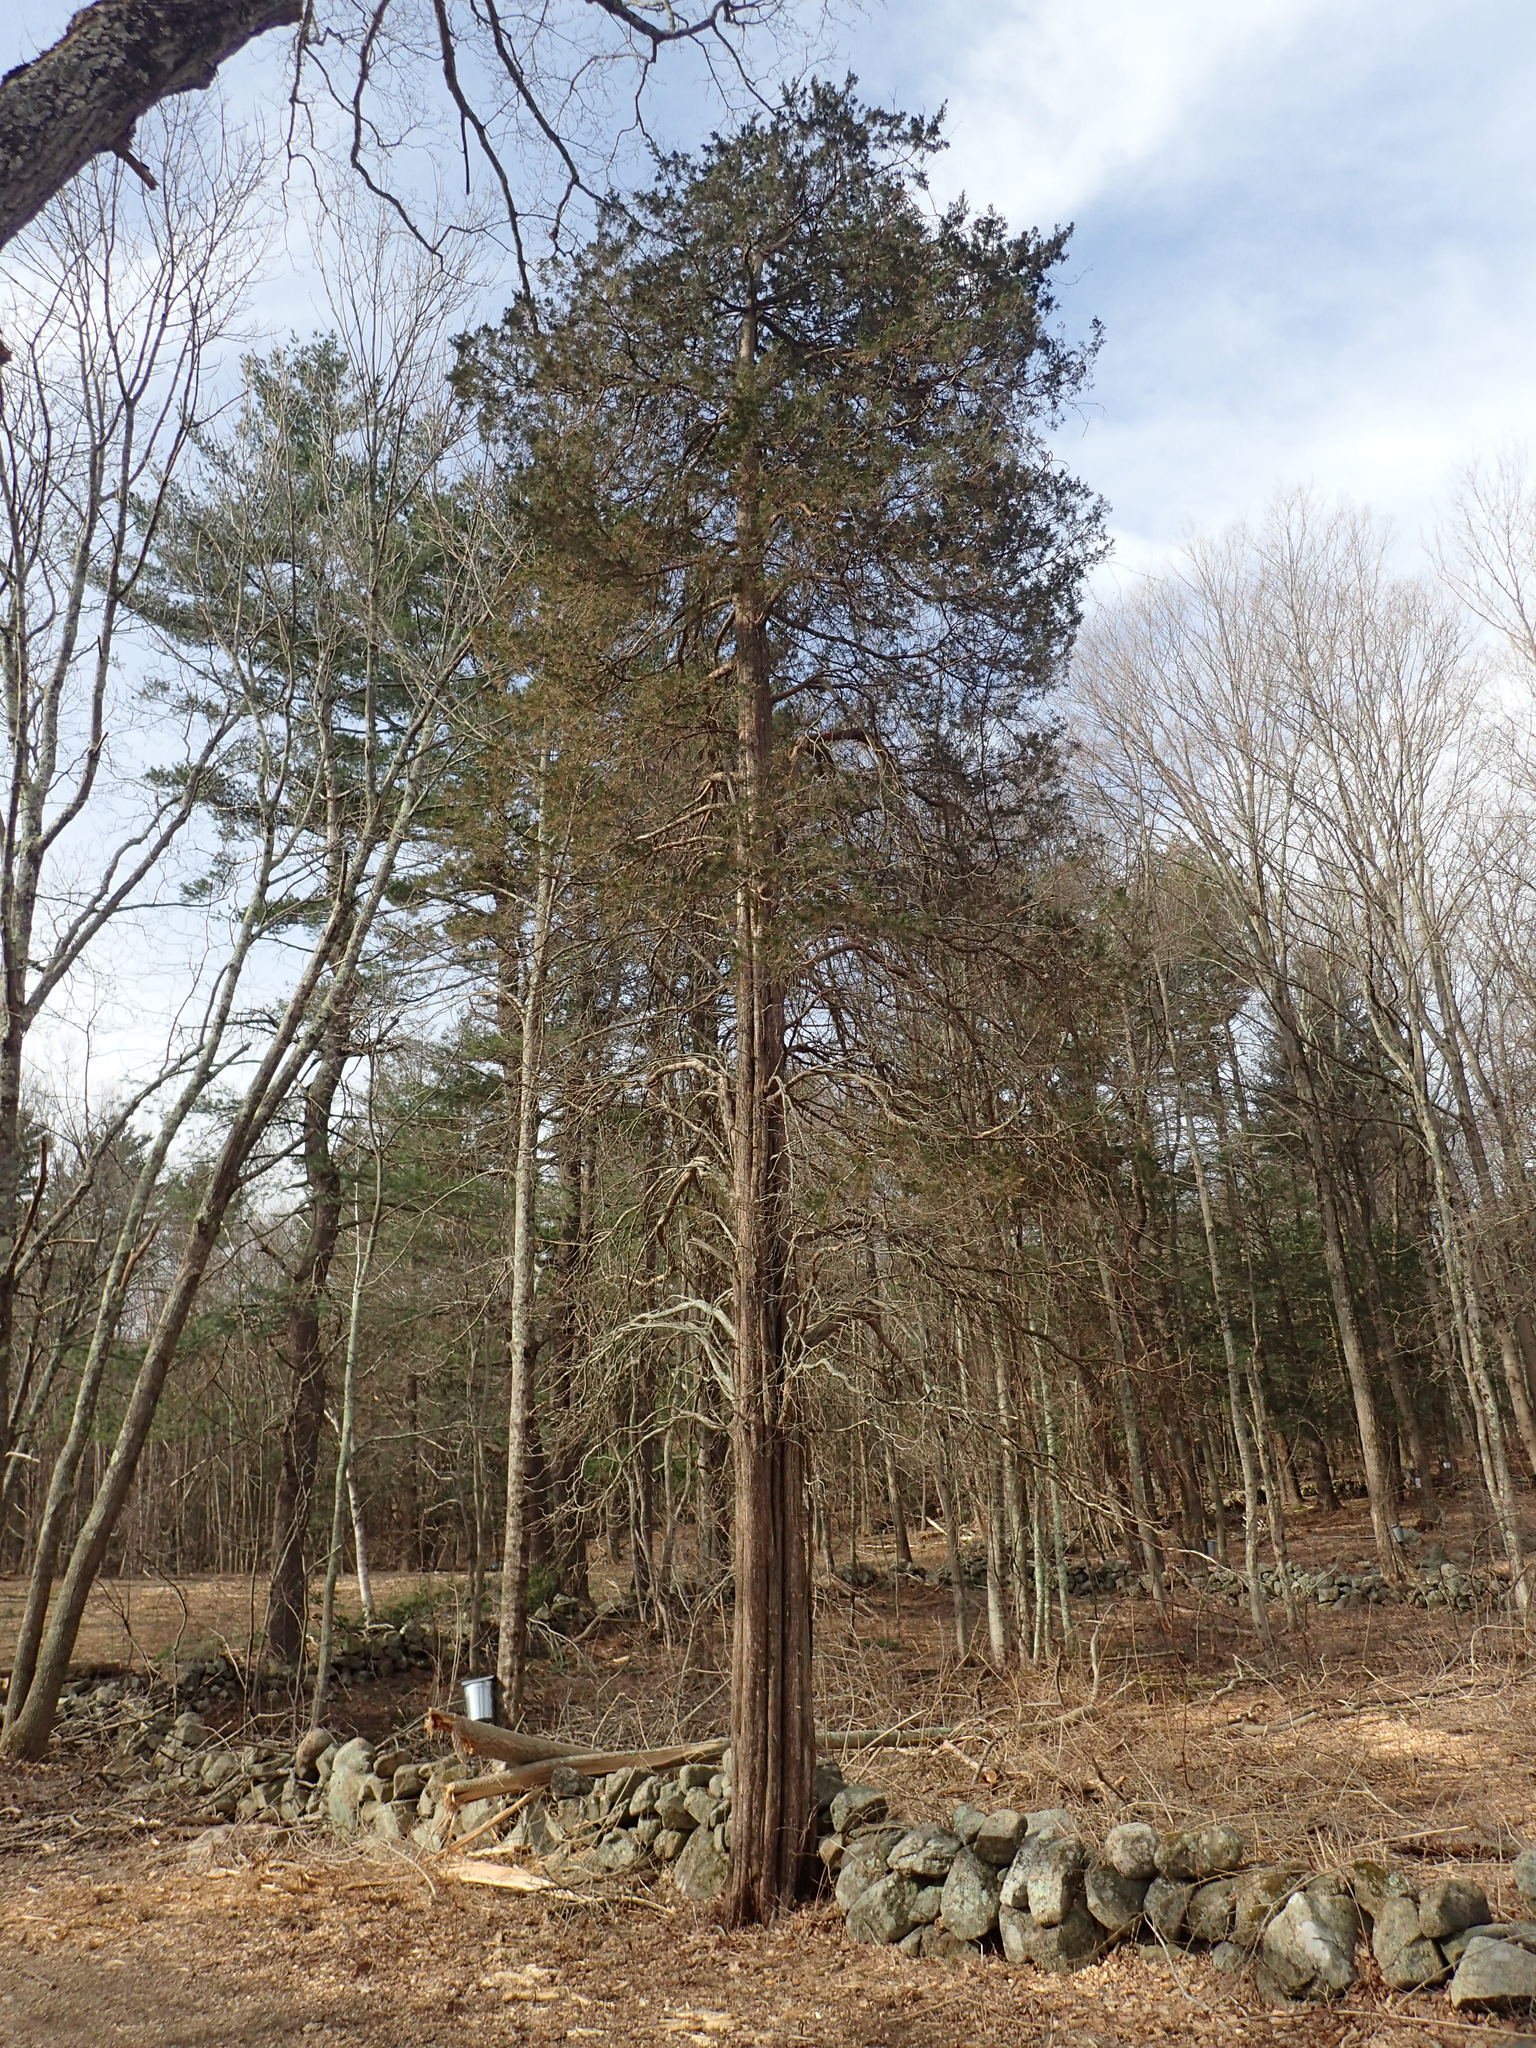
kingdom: Plantae
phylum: Tracheophyta
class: Pinopsida
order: Pinales
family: Cupressaceae
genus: Juniperus
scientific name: Juniperus virginiana
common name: Red juniper
